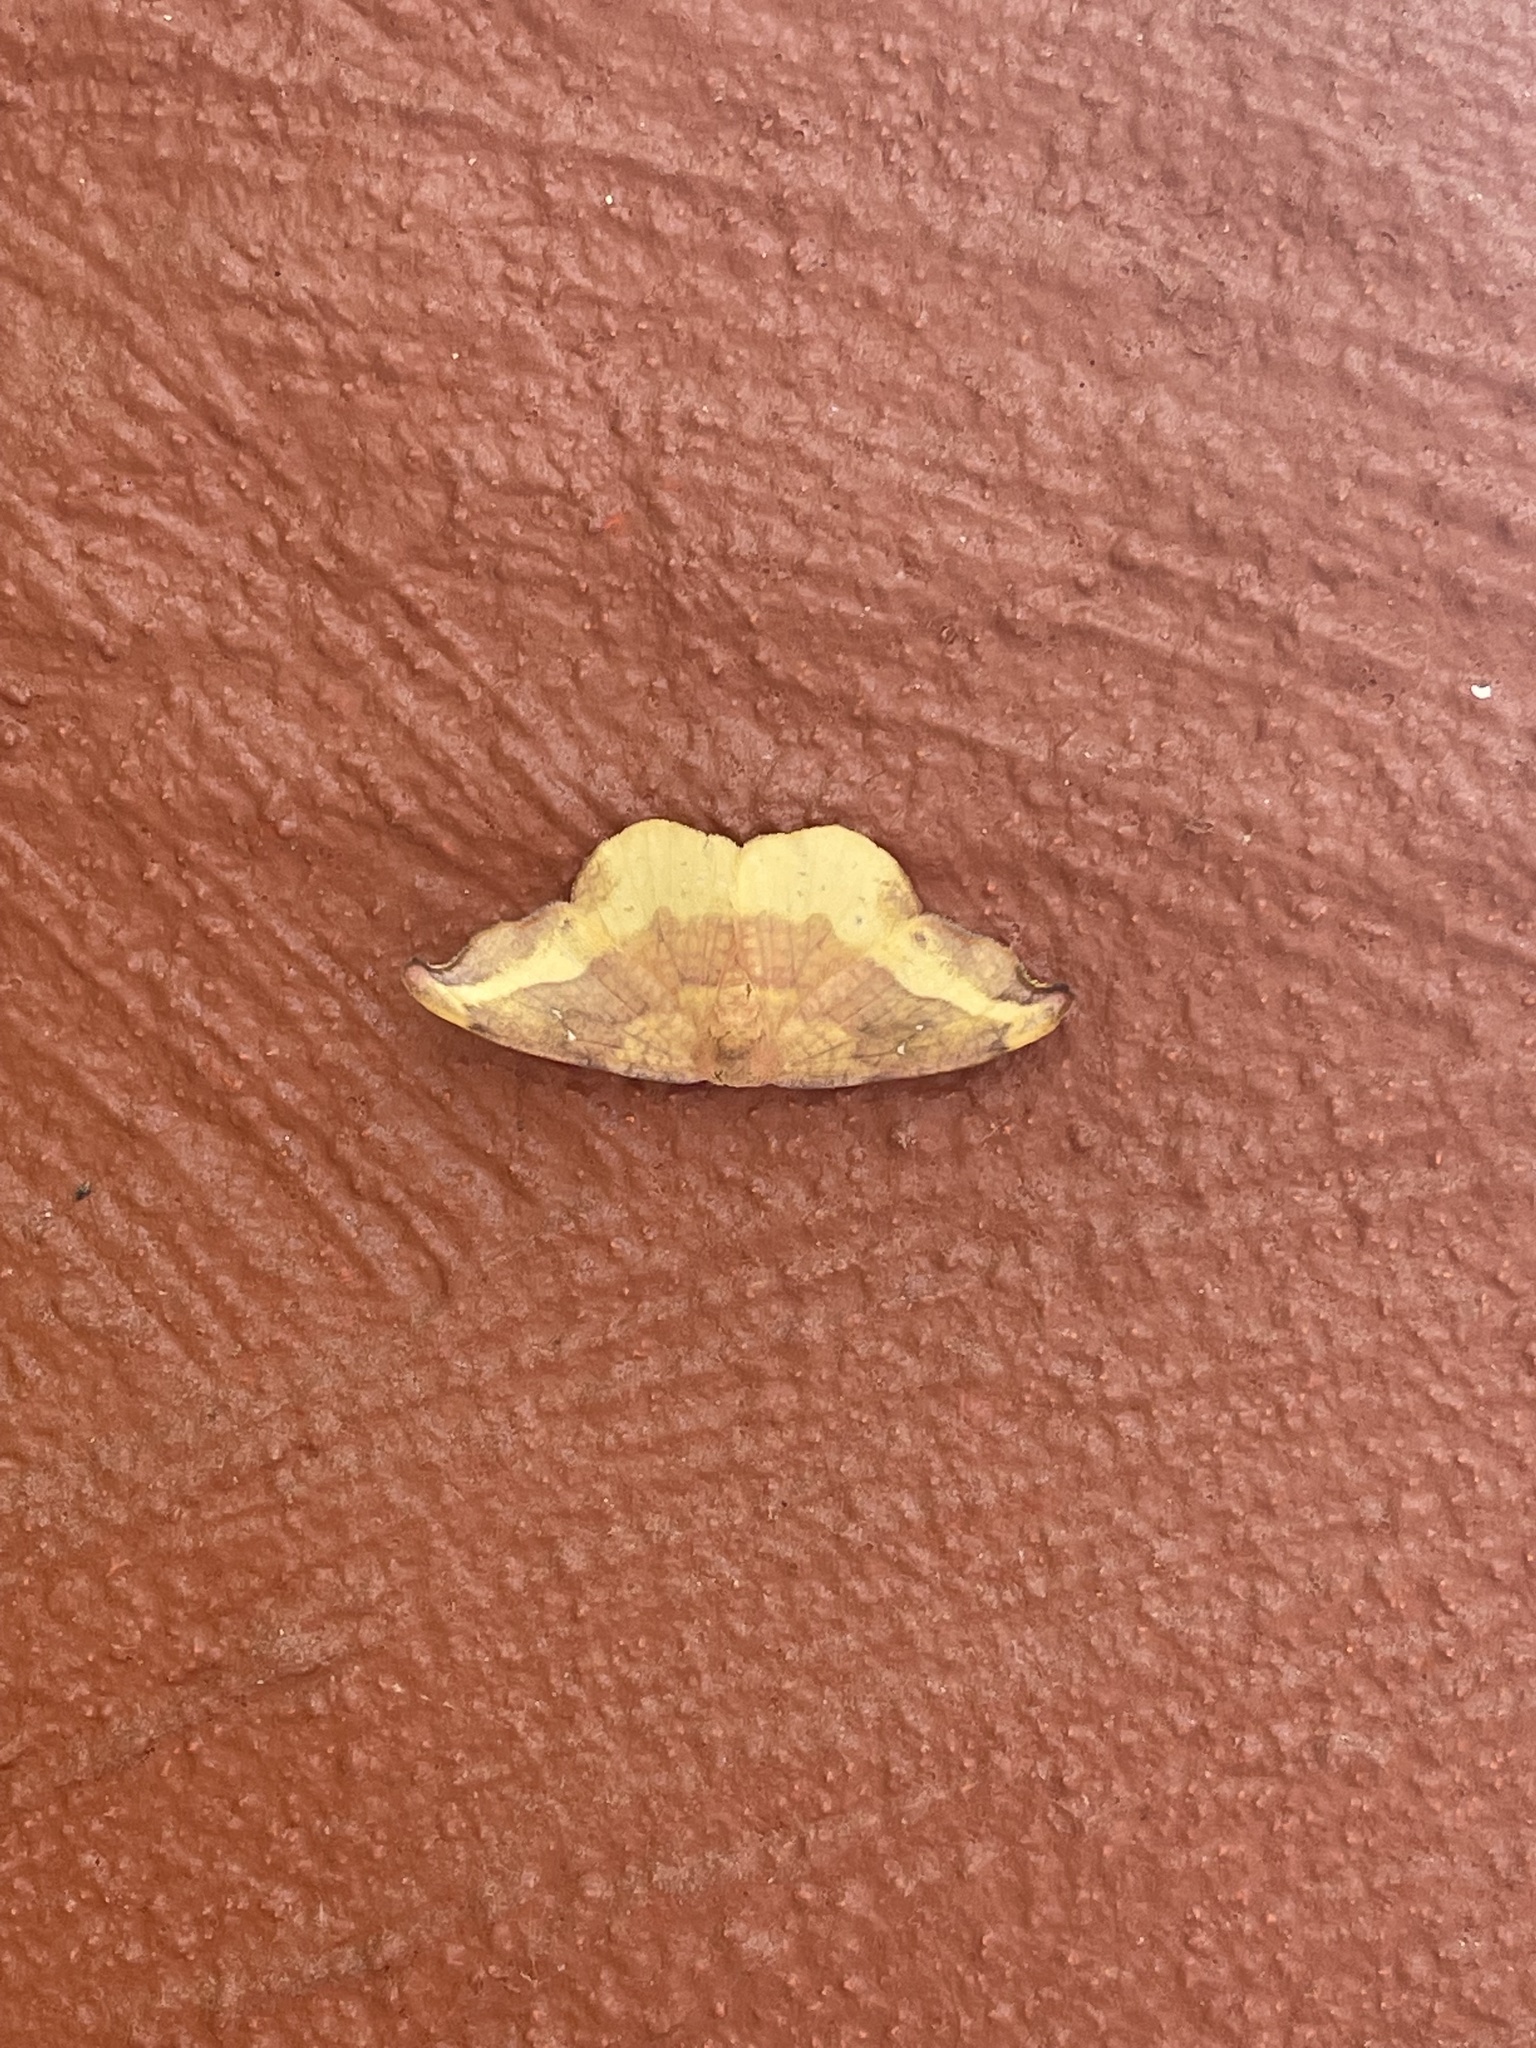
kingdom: Animalia
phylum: Arthropoda
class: Insecta
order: Lepidoptera
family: Drepanidae
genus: Oreta
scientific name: Oreta rosea
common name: Rose hooktip
